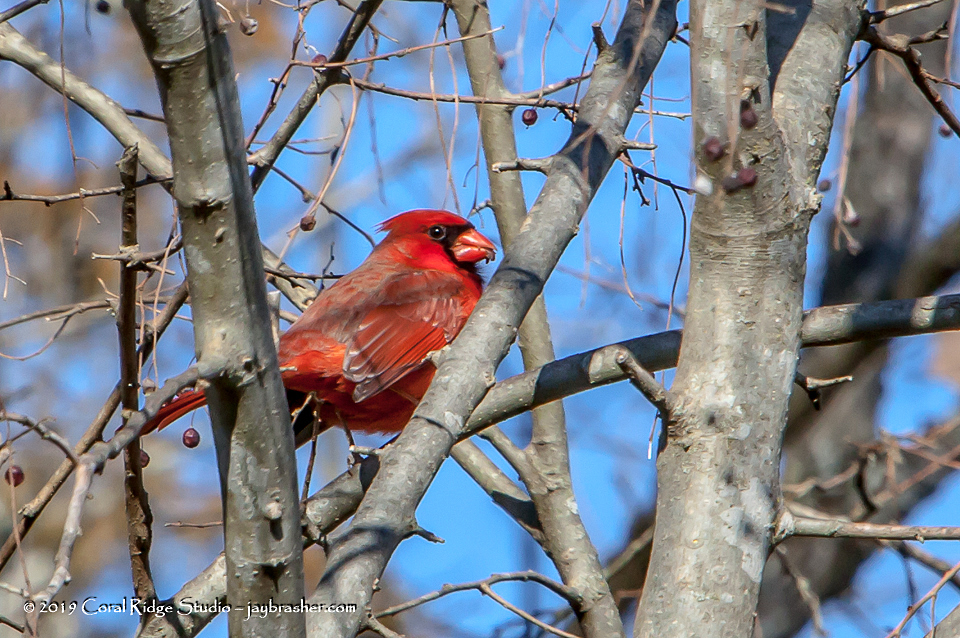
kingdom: Animalia
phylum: Chordata
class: Aves
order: Passeriformes
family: Cardinalidae
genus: Cardinalis
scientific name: Cardinalis cardinalis
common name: Northern cardinal
